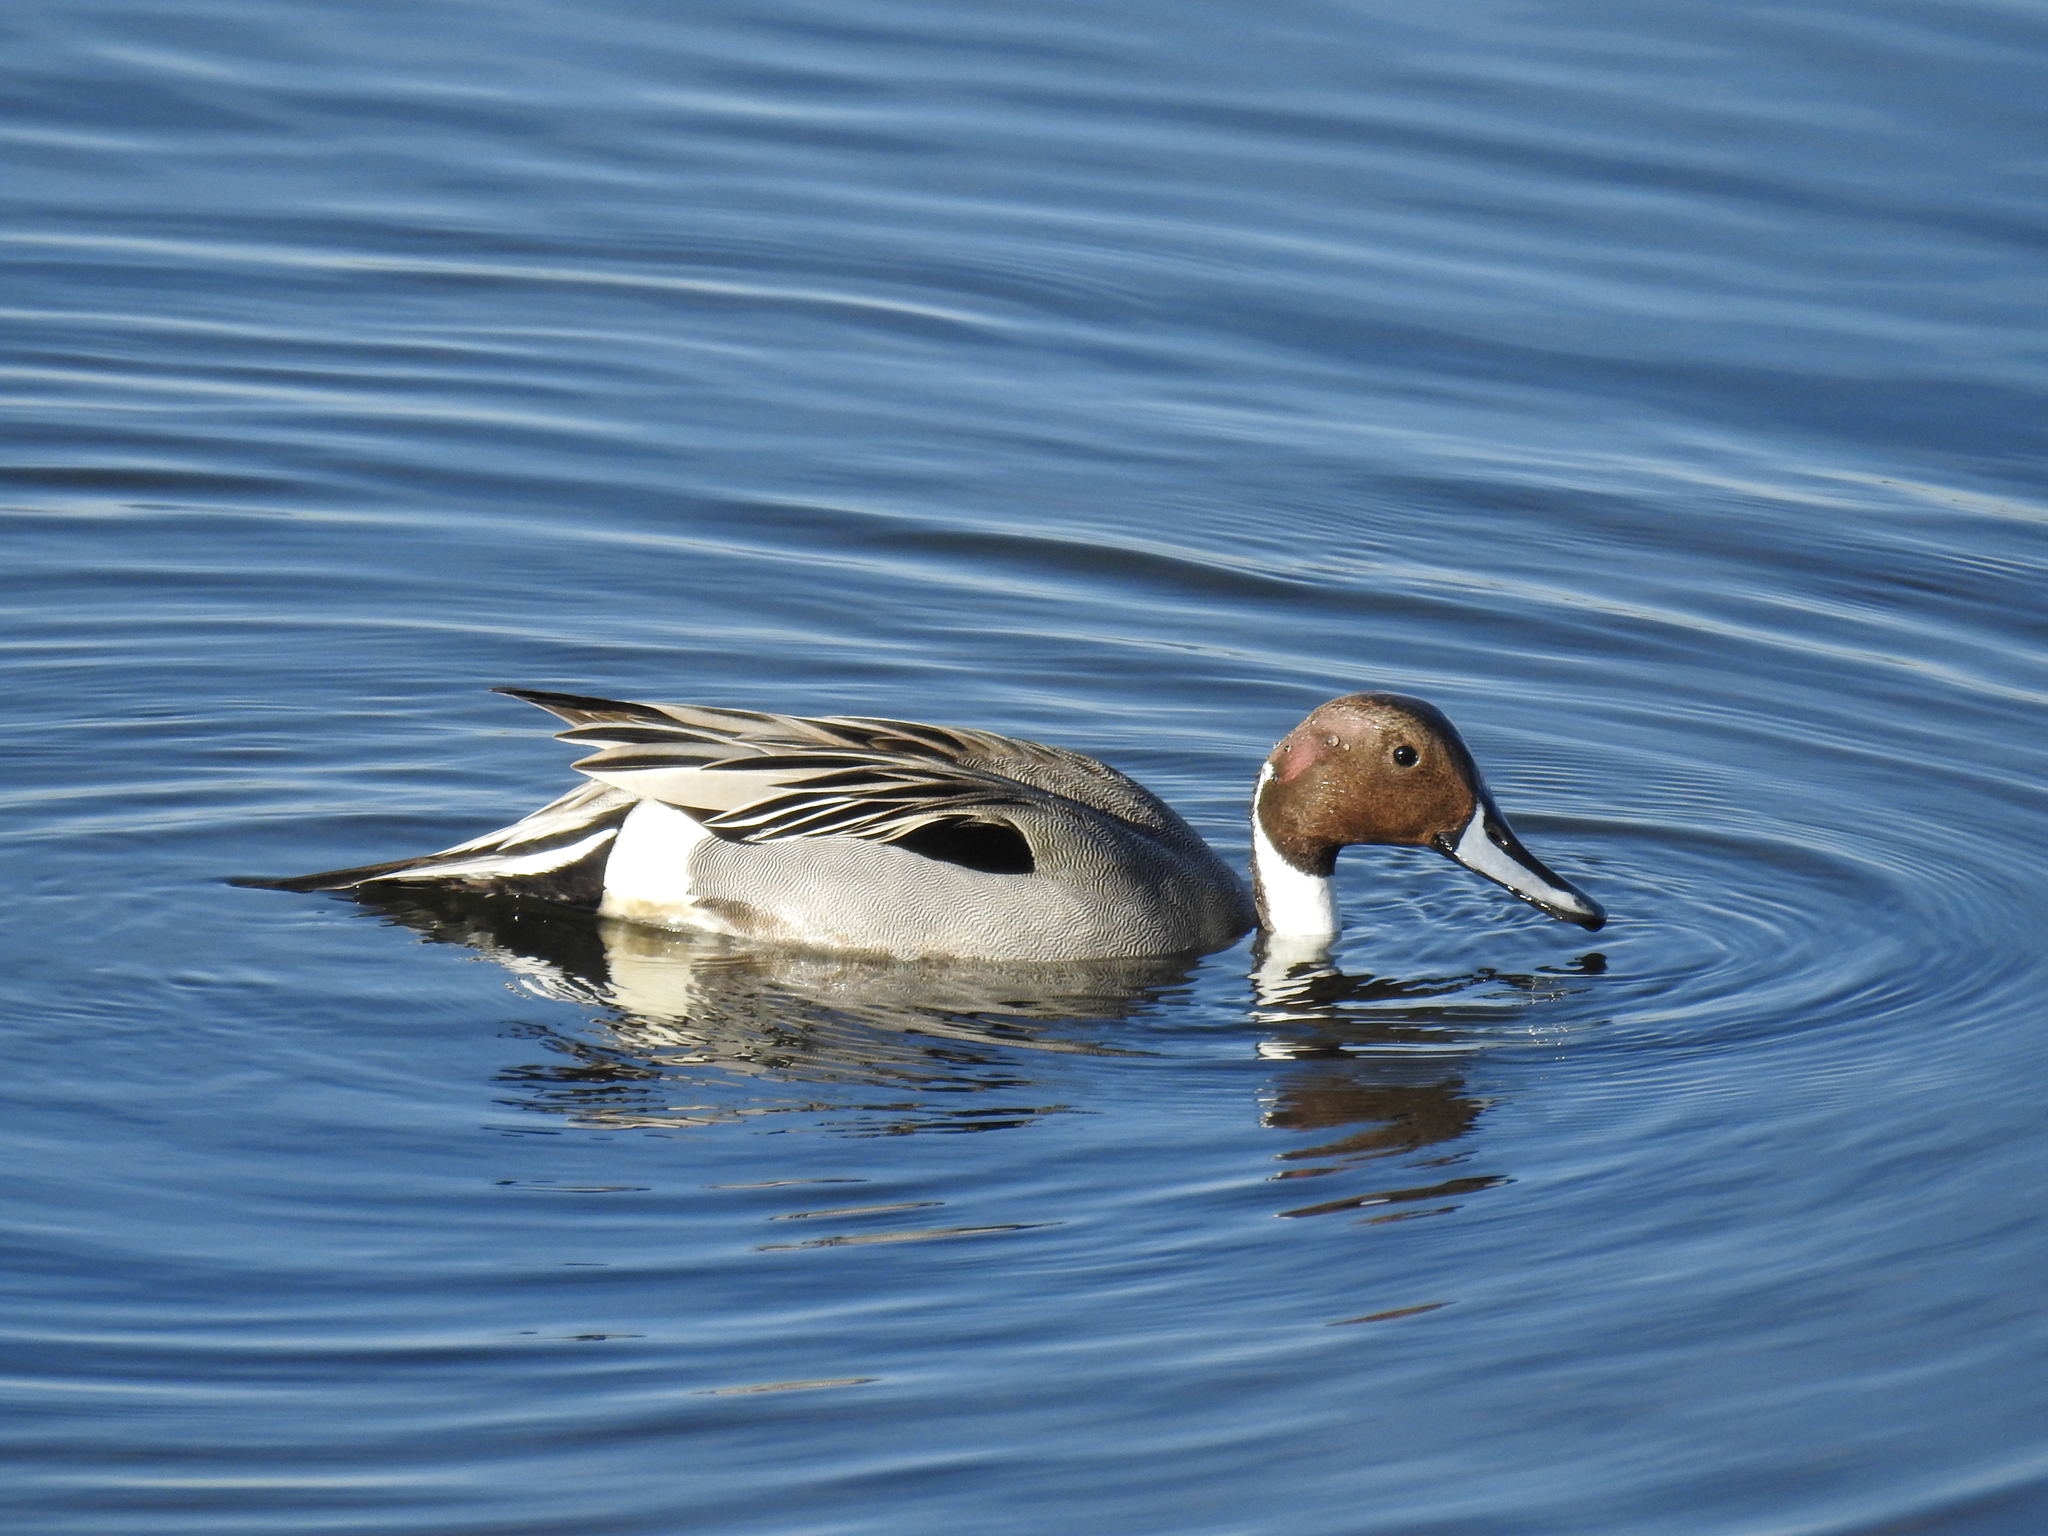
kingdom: Animalia
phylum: Chordata
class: Aves
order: Anseriformes
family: Anatidae
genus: Anas
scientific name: Anas acuta
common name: Northern pintail
